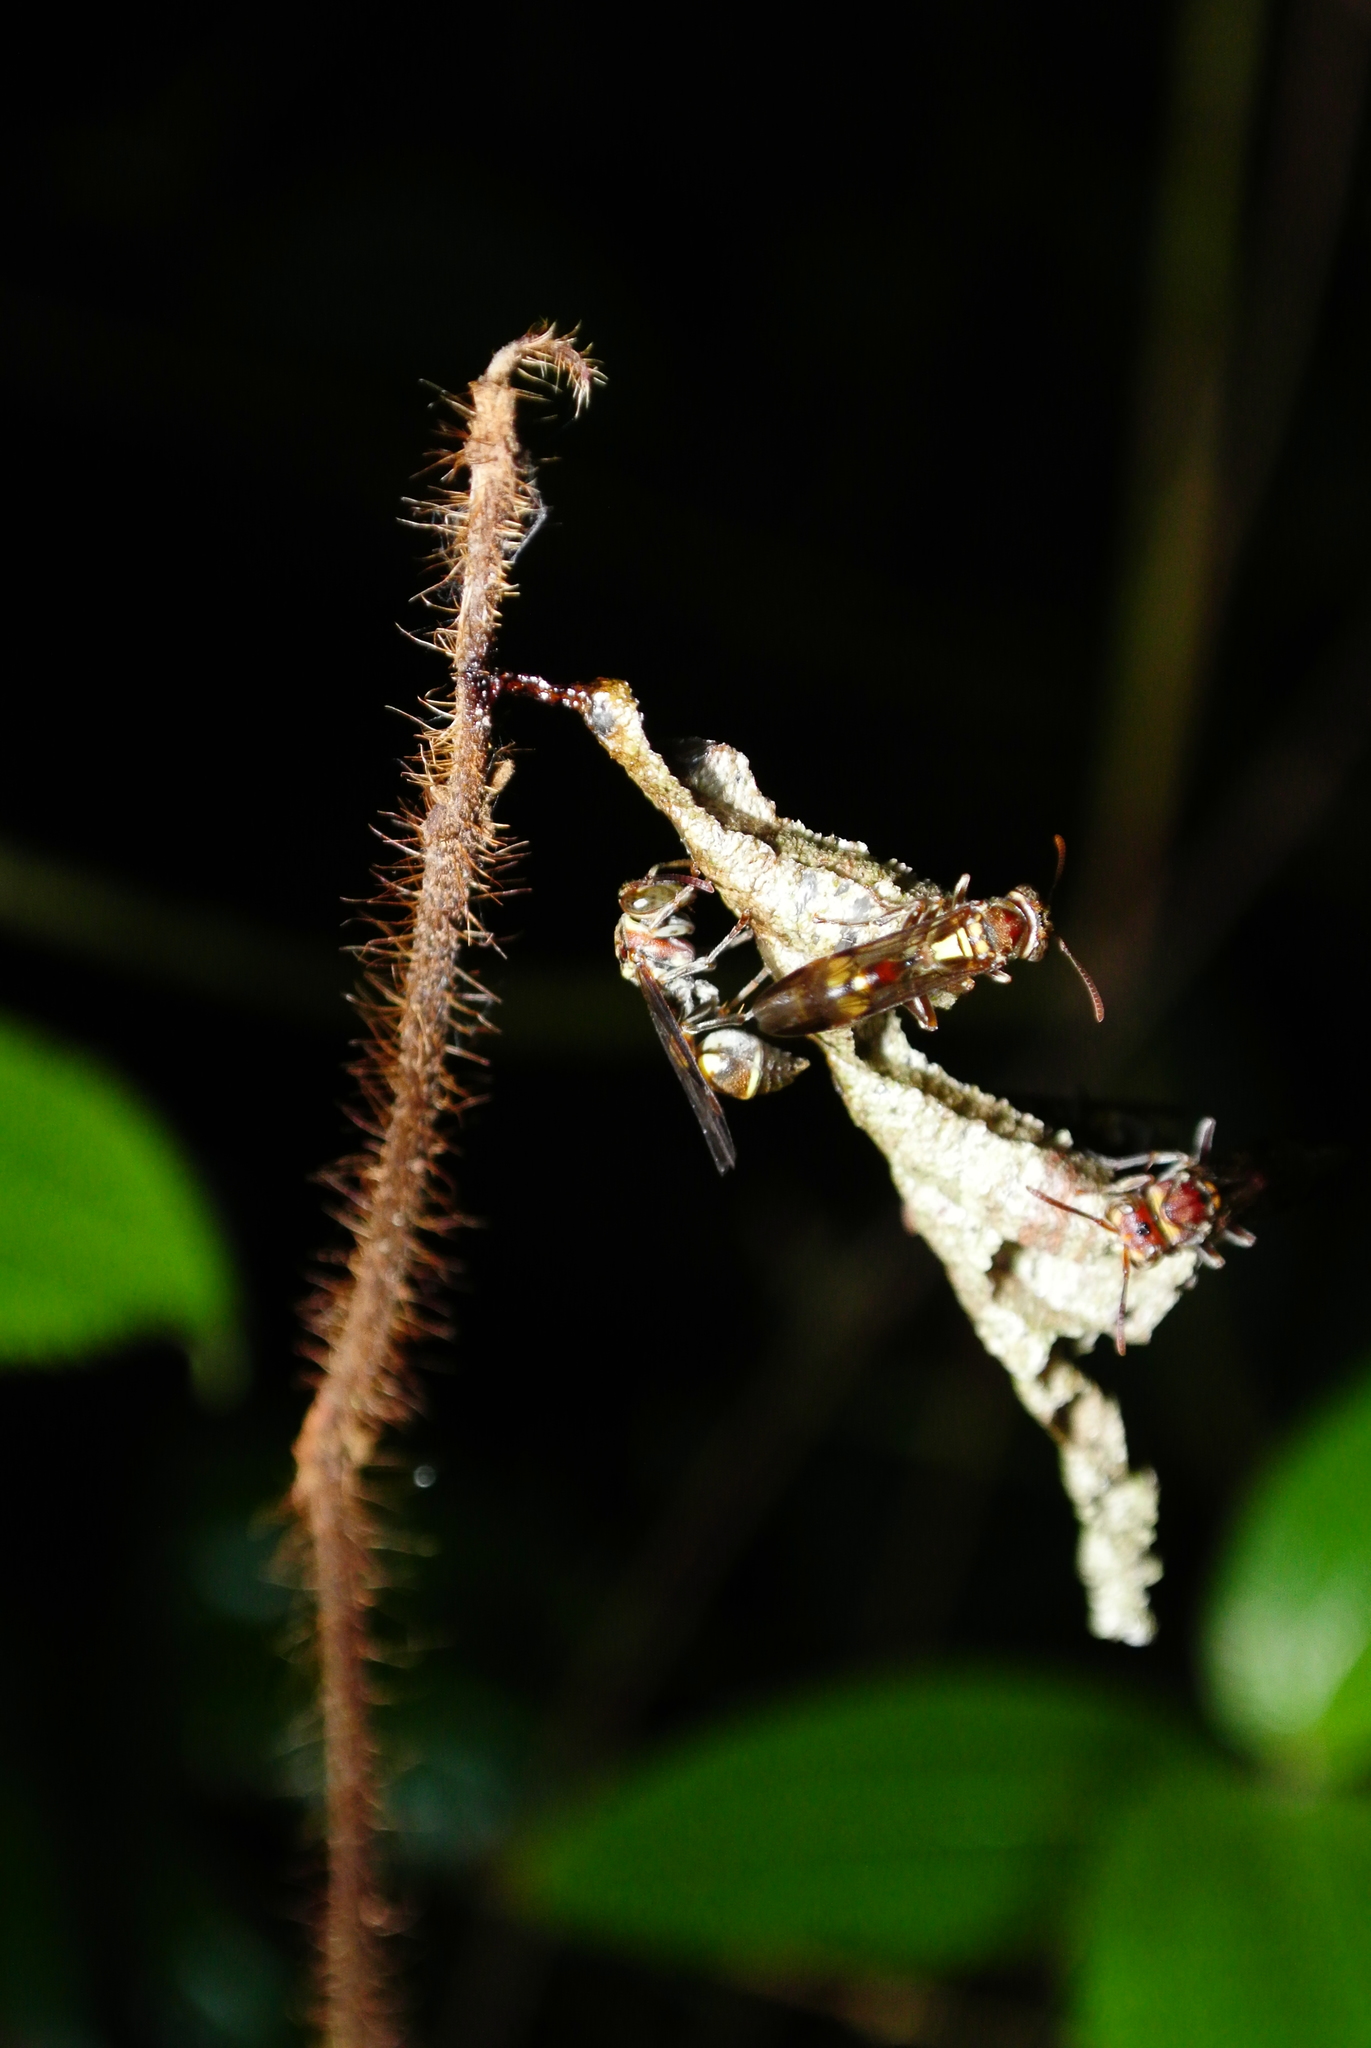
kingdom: Animalia
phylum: Arthropoda
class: Insecta
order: Hymenoptera
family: Vespidae
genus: Ropalidia
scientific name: Ropalidia stigma
